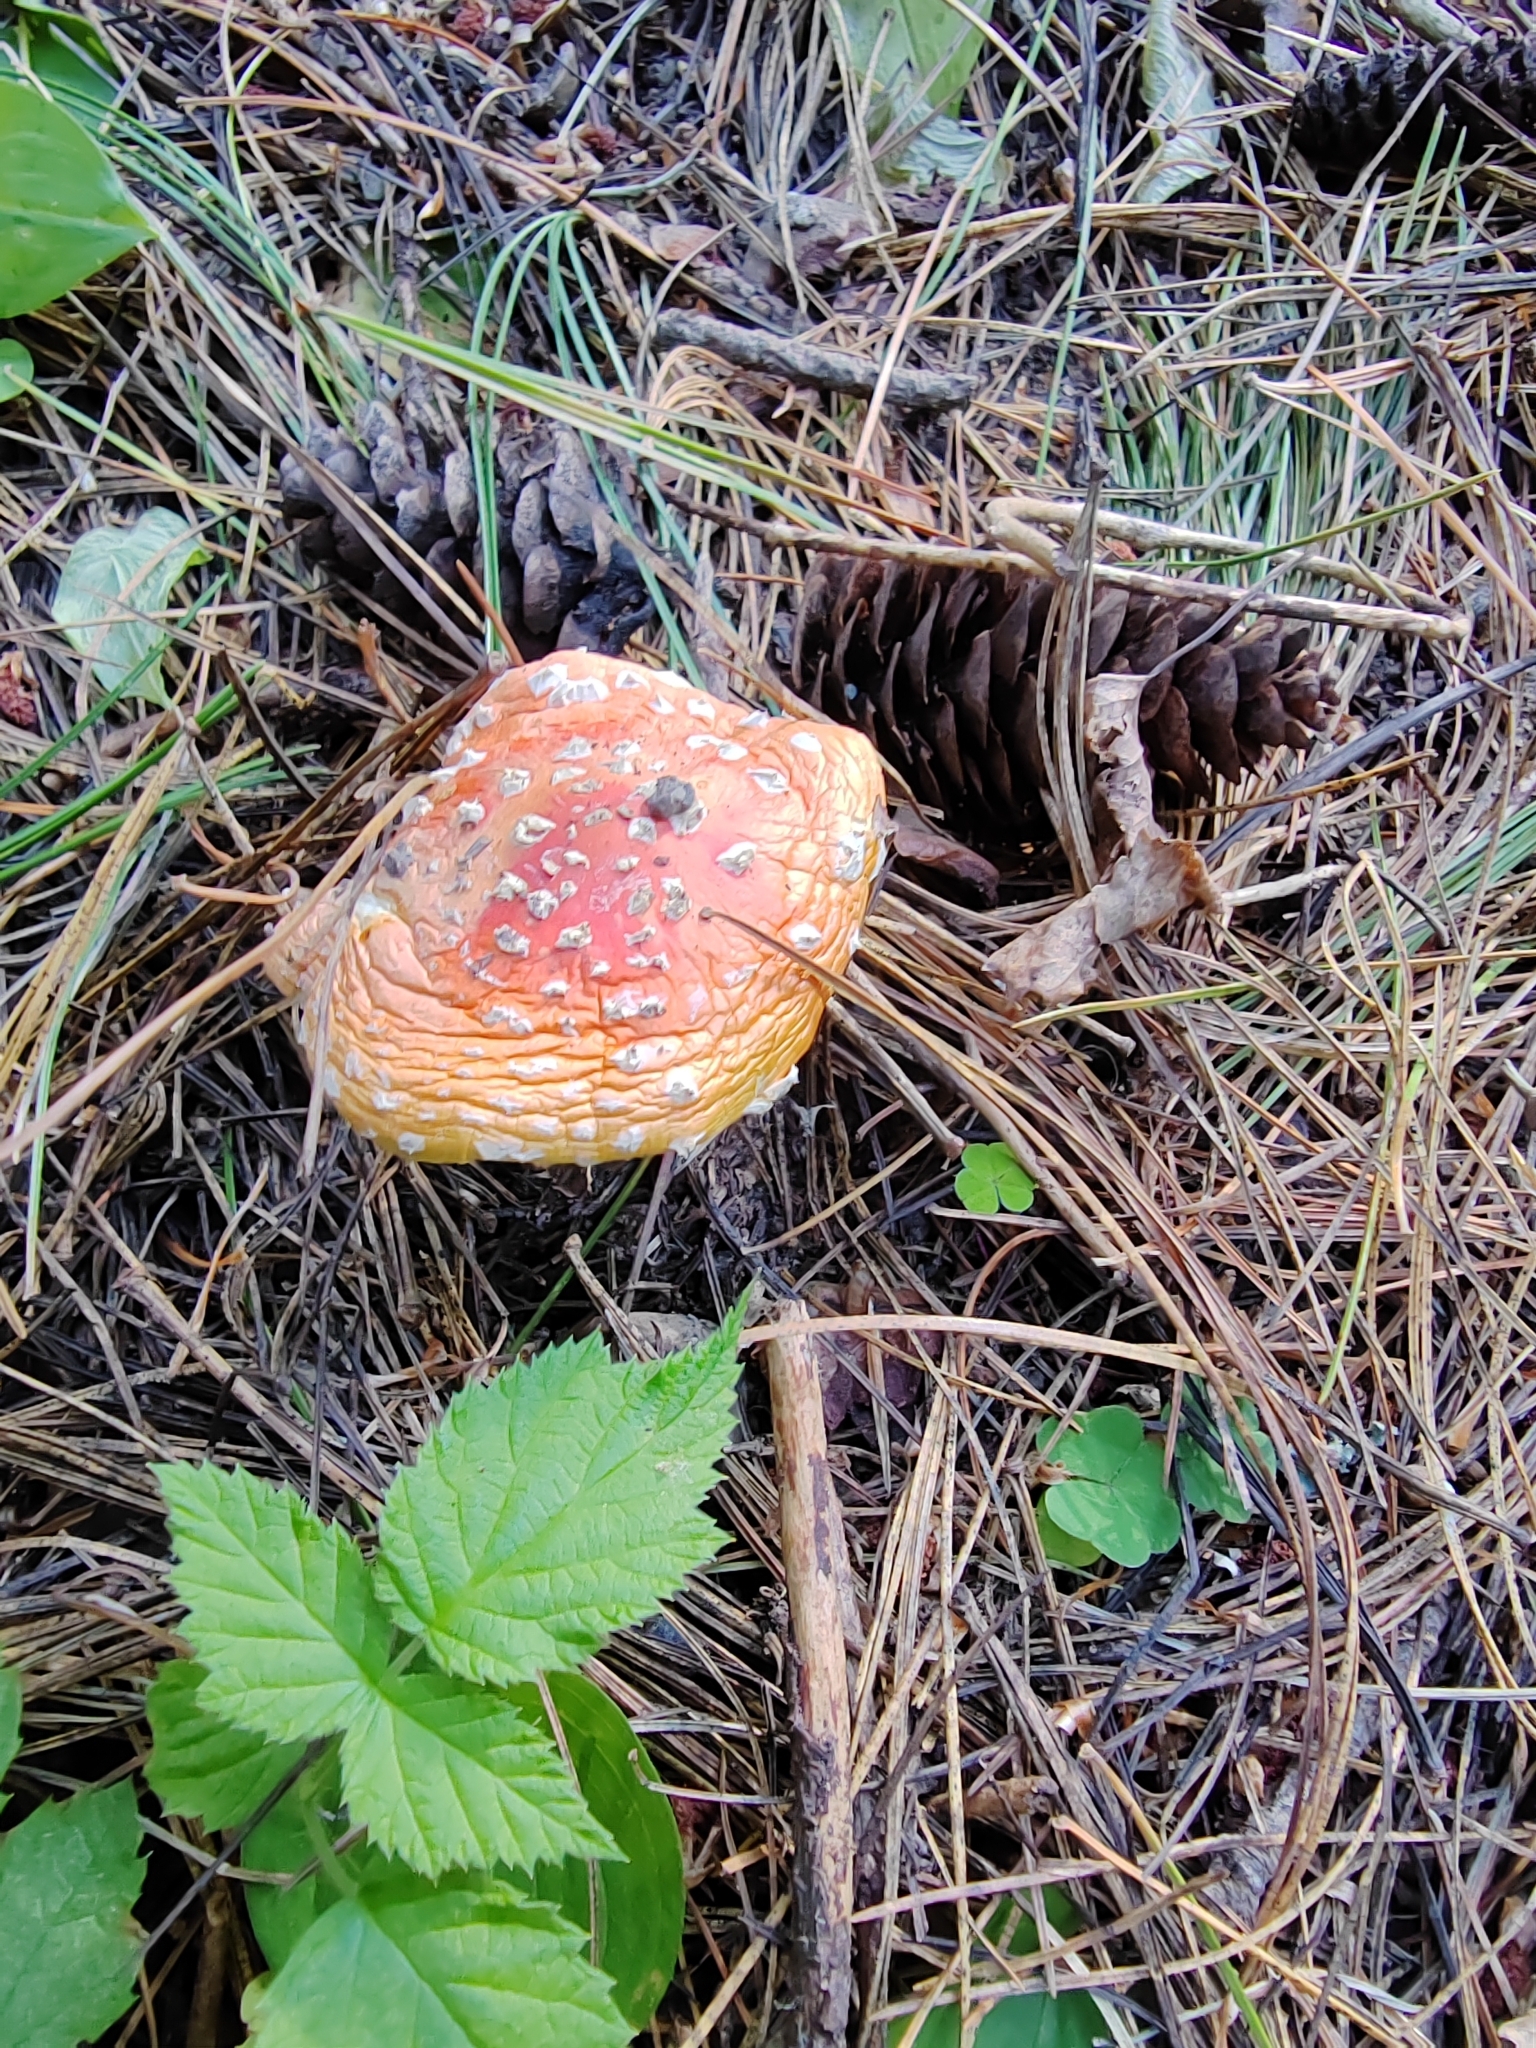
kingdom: Fungi
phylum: Basidiomycota
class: Agaricomycetes
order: Agaricales
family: Amanitaceae
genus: Amanita
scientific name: Amanita muscaria
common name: Fly agaric
